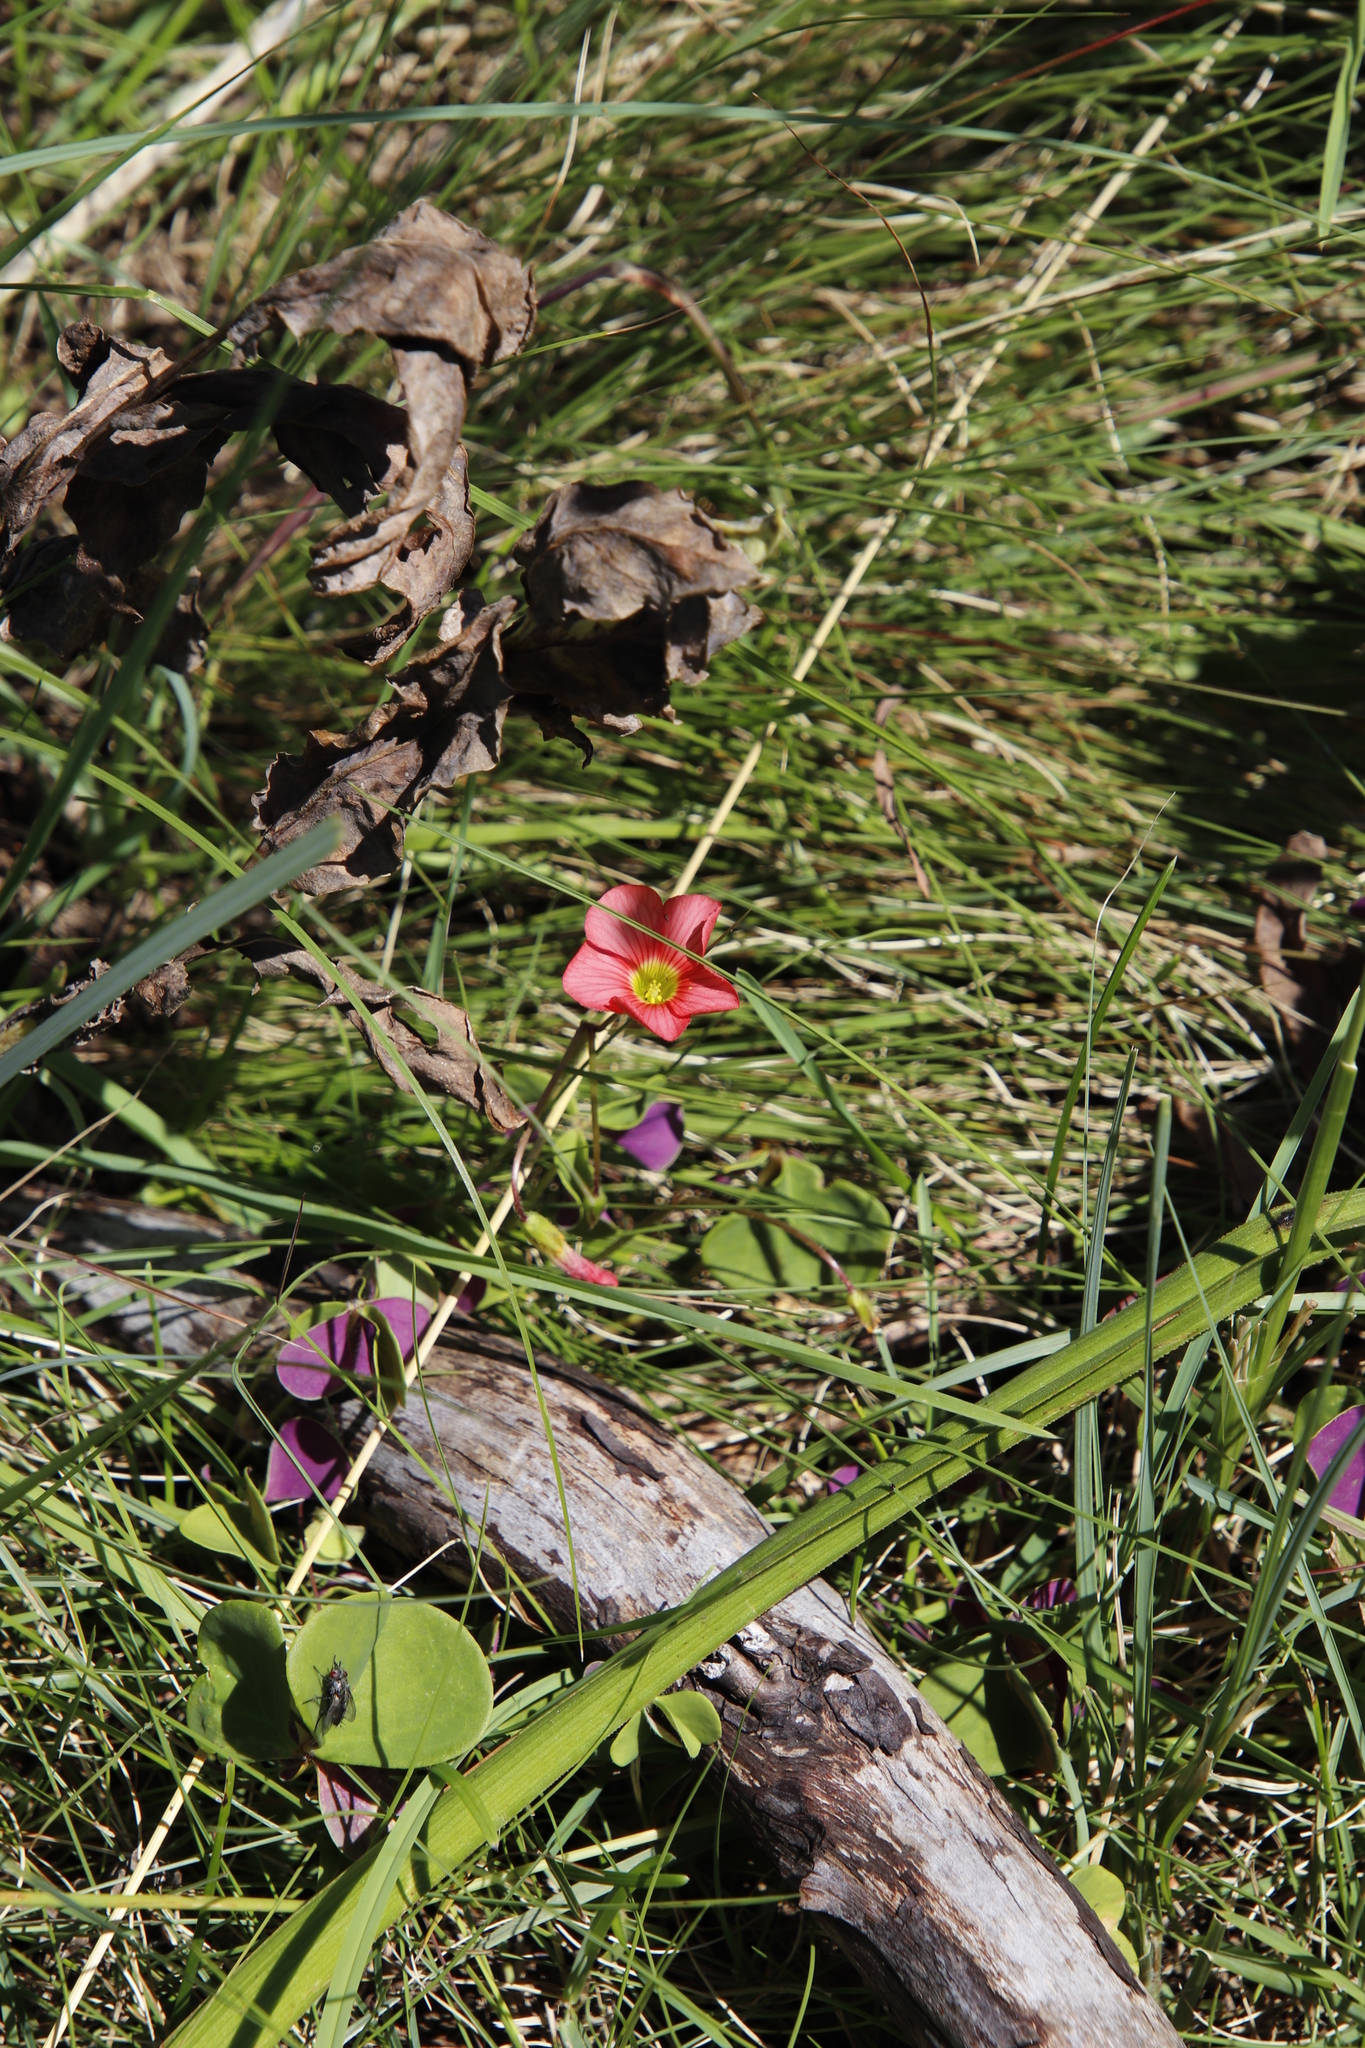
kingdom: Plantae
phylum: Tracheophyta
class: Magnoliopsida
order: Oxalidales
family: Oxalidaceae
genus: Oxalis
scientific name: Oxalis bowiei
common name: Bowie's wood-sorrel
